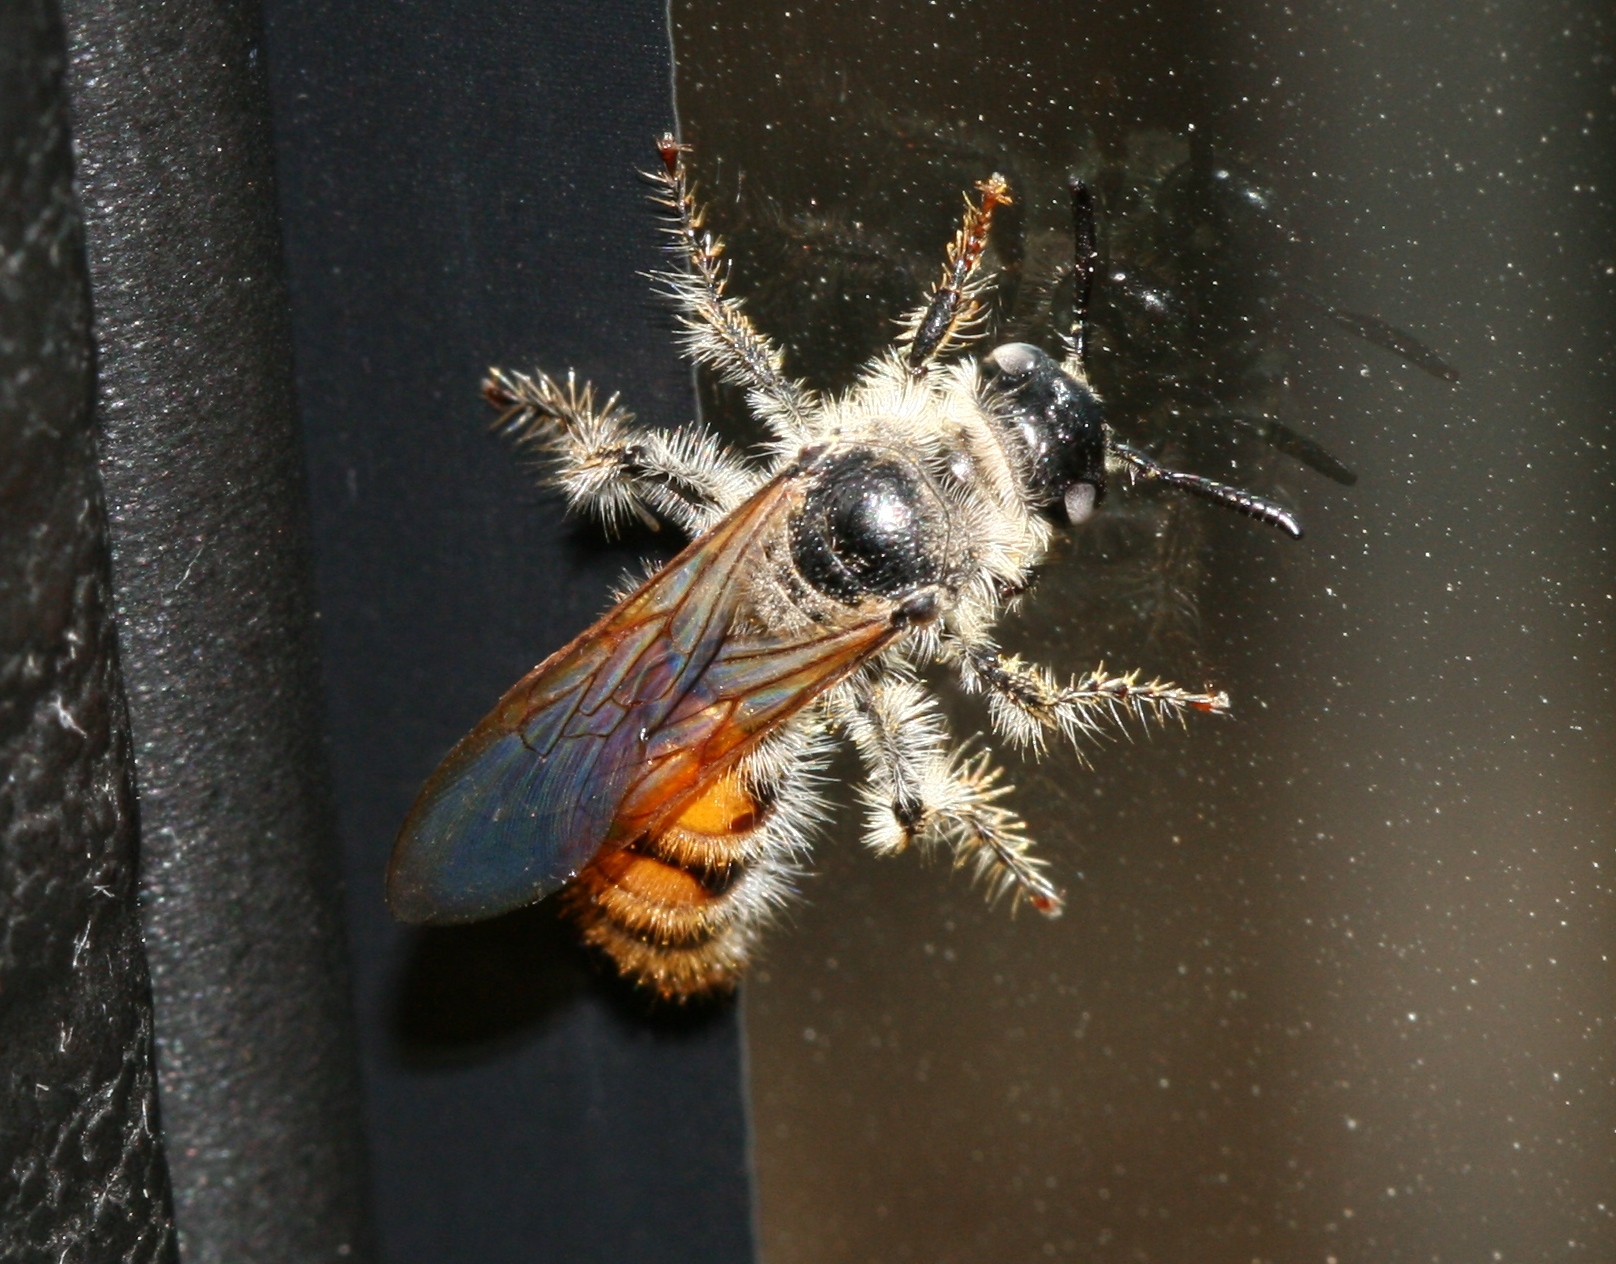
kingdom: Animalia
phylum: Arthropoda
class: Insecta
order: Hymenoptera
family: Scoliidae
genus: Micromeriella
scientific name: Micromeriella aureola
